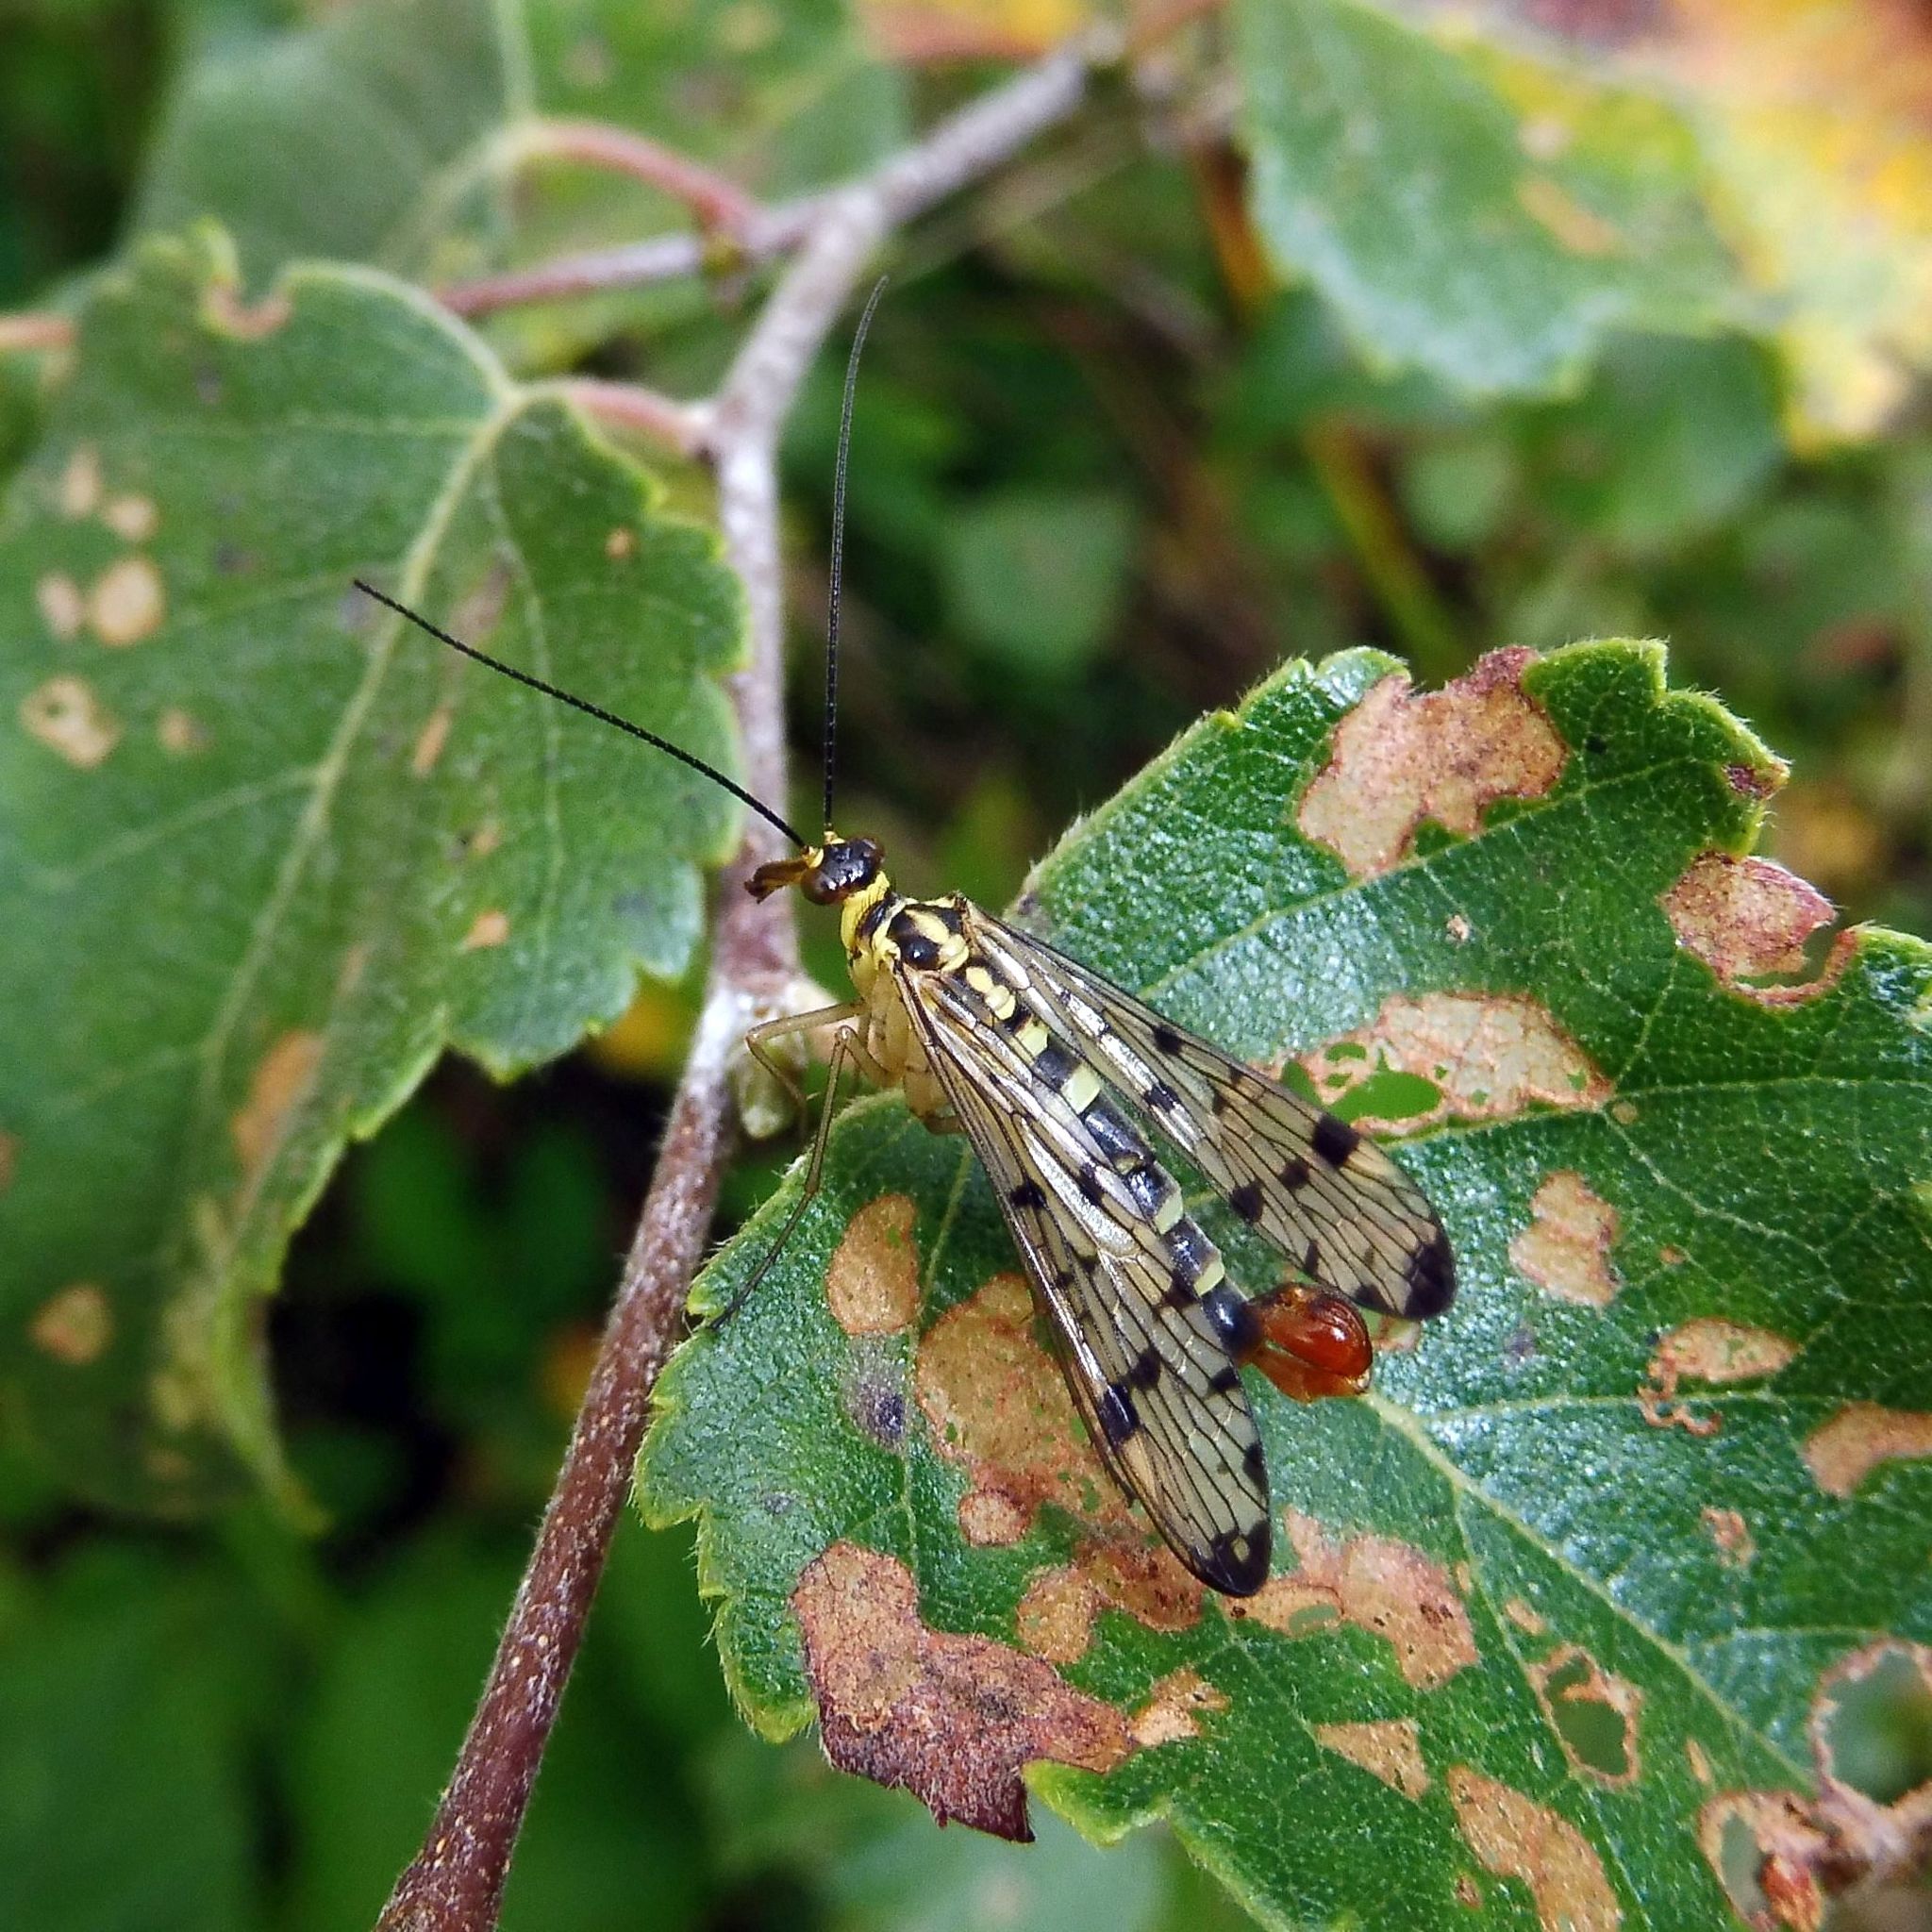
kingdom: Animalia
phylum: Arthropoda
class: Insecta
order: Mecoptera
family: Panorpidae
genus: Panorpa
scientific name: Panorpa germanica
